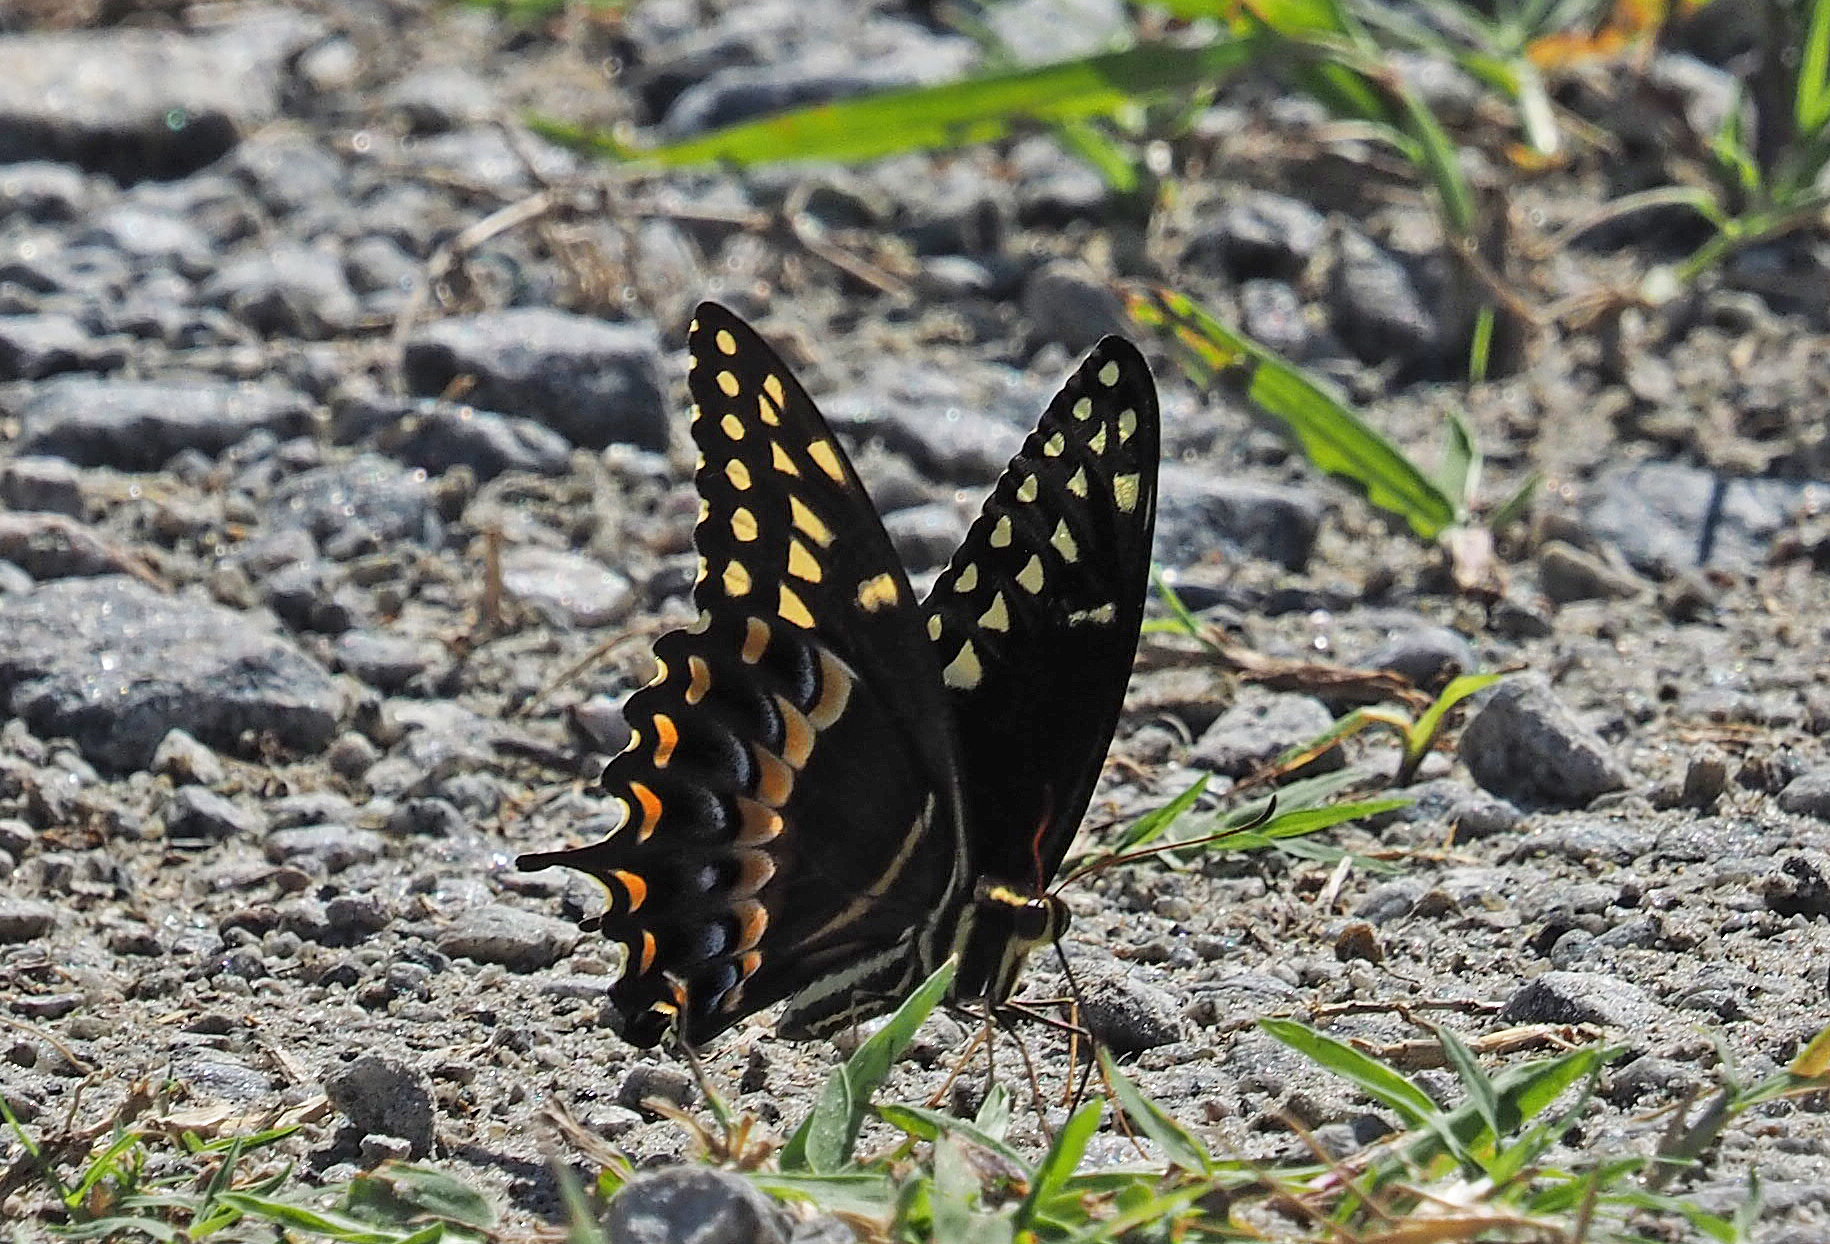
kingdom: Animalia
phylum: Arthropoda
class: Insecta
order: Lepidoptera
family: Papilionidae
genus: Papilio
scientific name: Papilio palamedes
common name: Palamedes swallowtail
